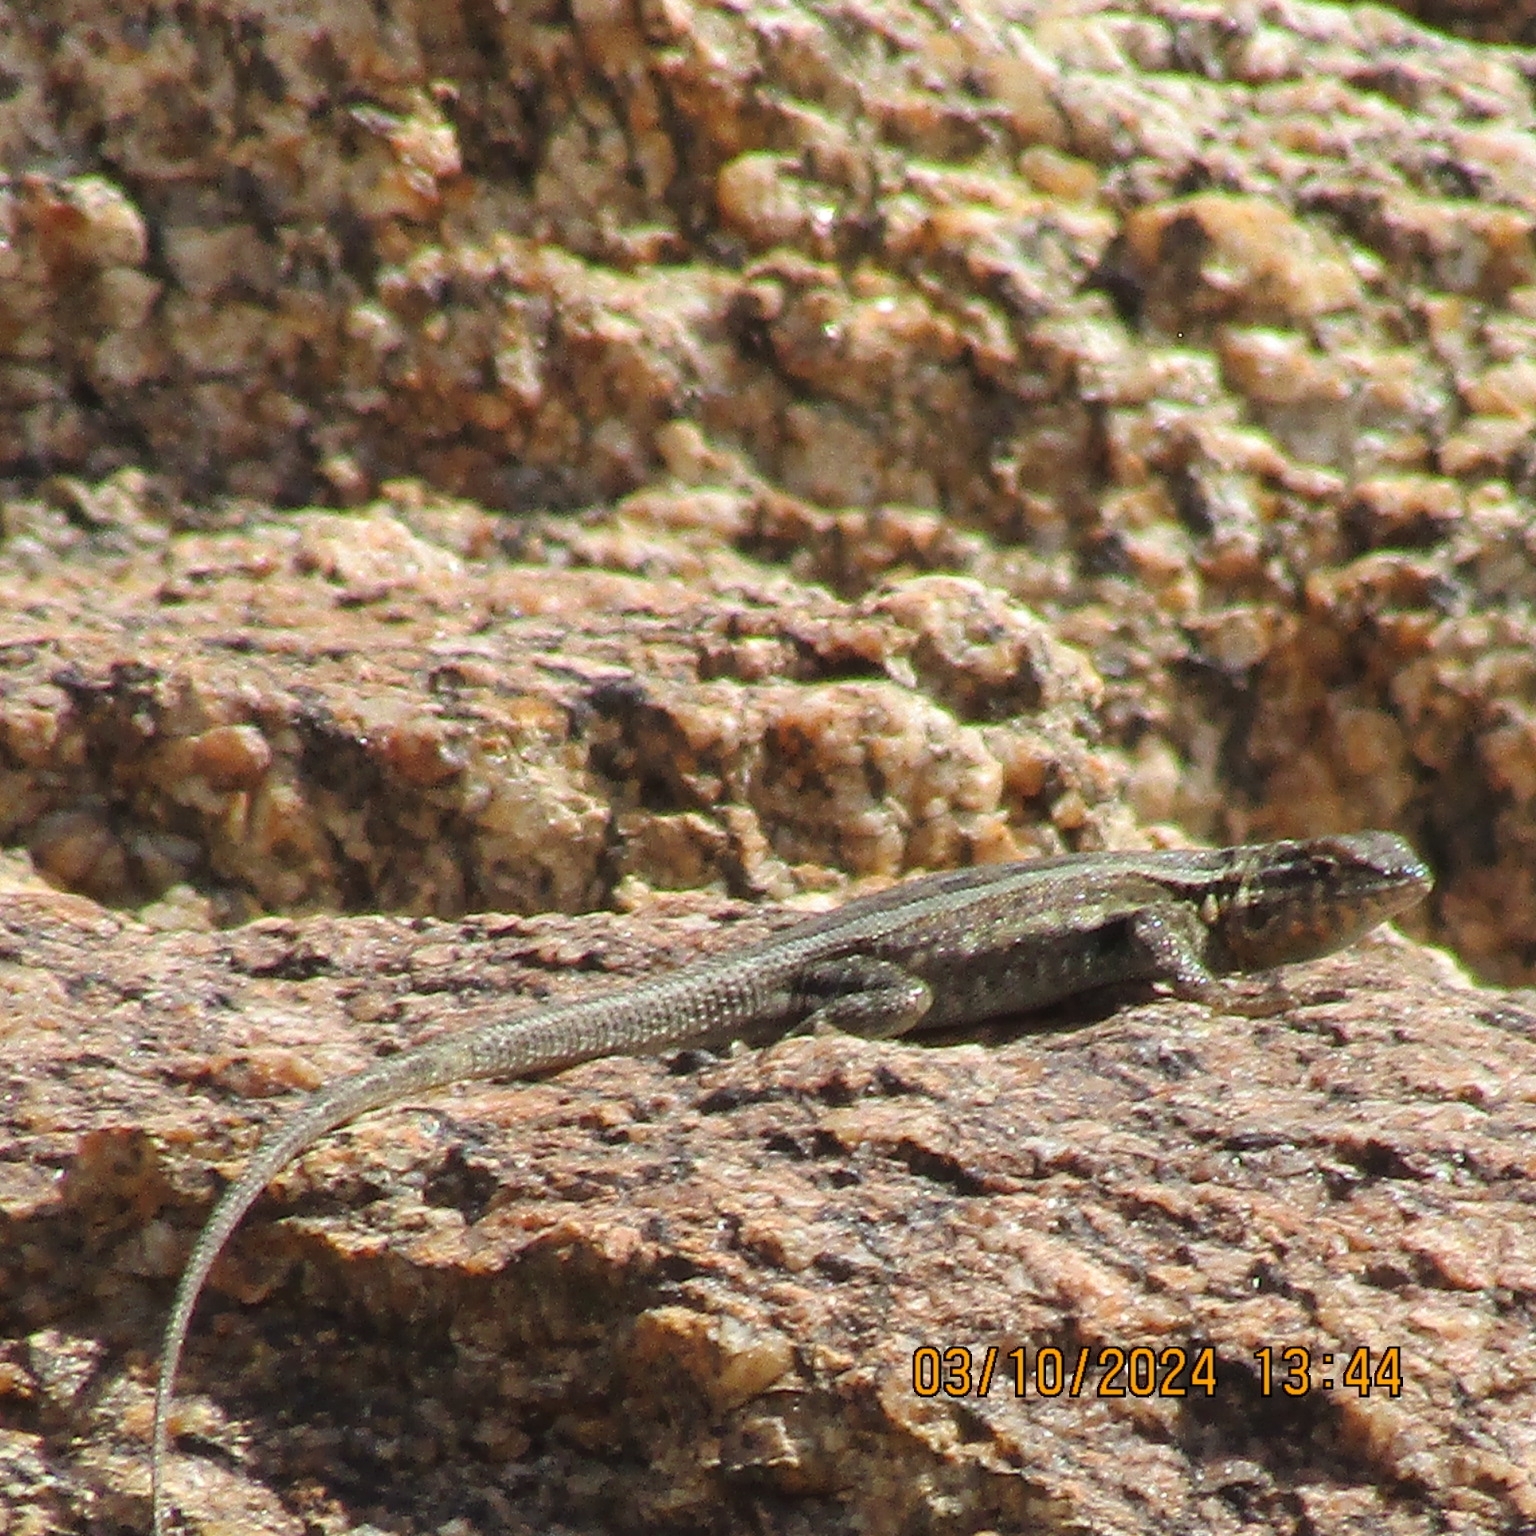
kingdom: Animalia
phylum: Chordata
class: Squamata
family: Phrynosomatidae
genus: Uta
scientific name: Uta stansburiana
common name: Side-blotched lizard
